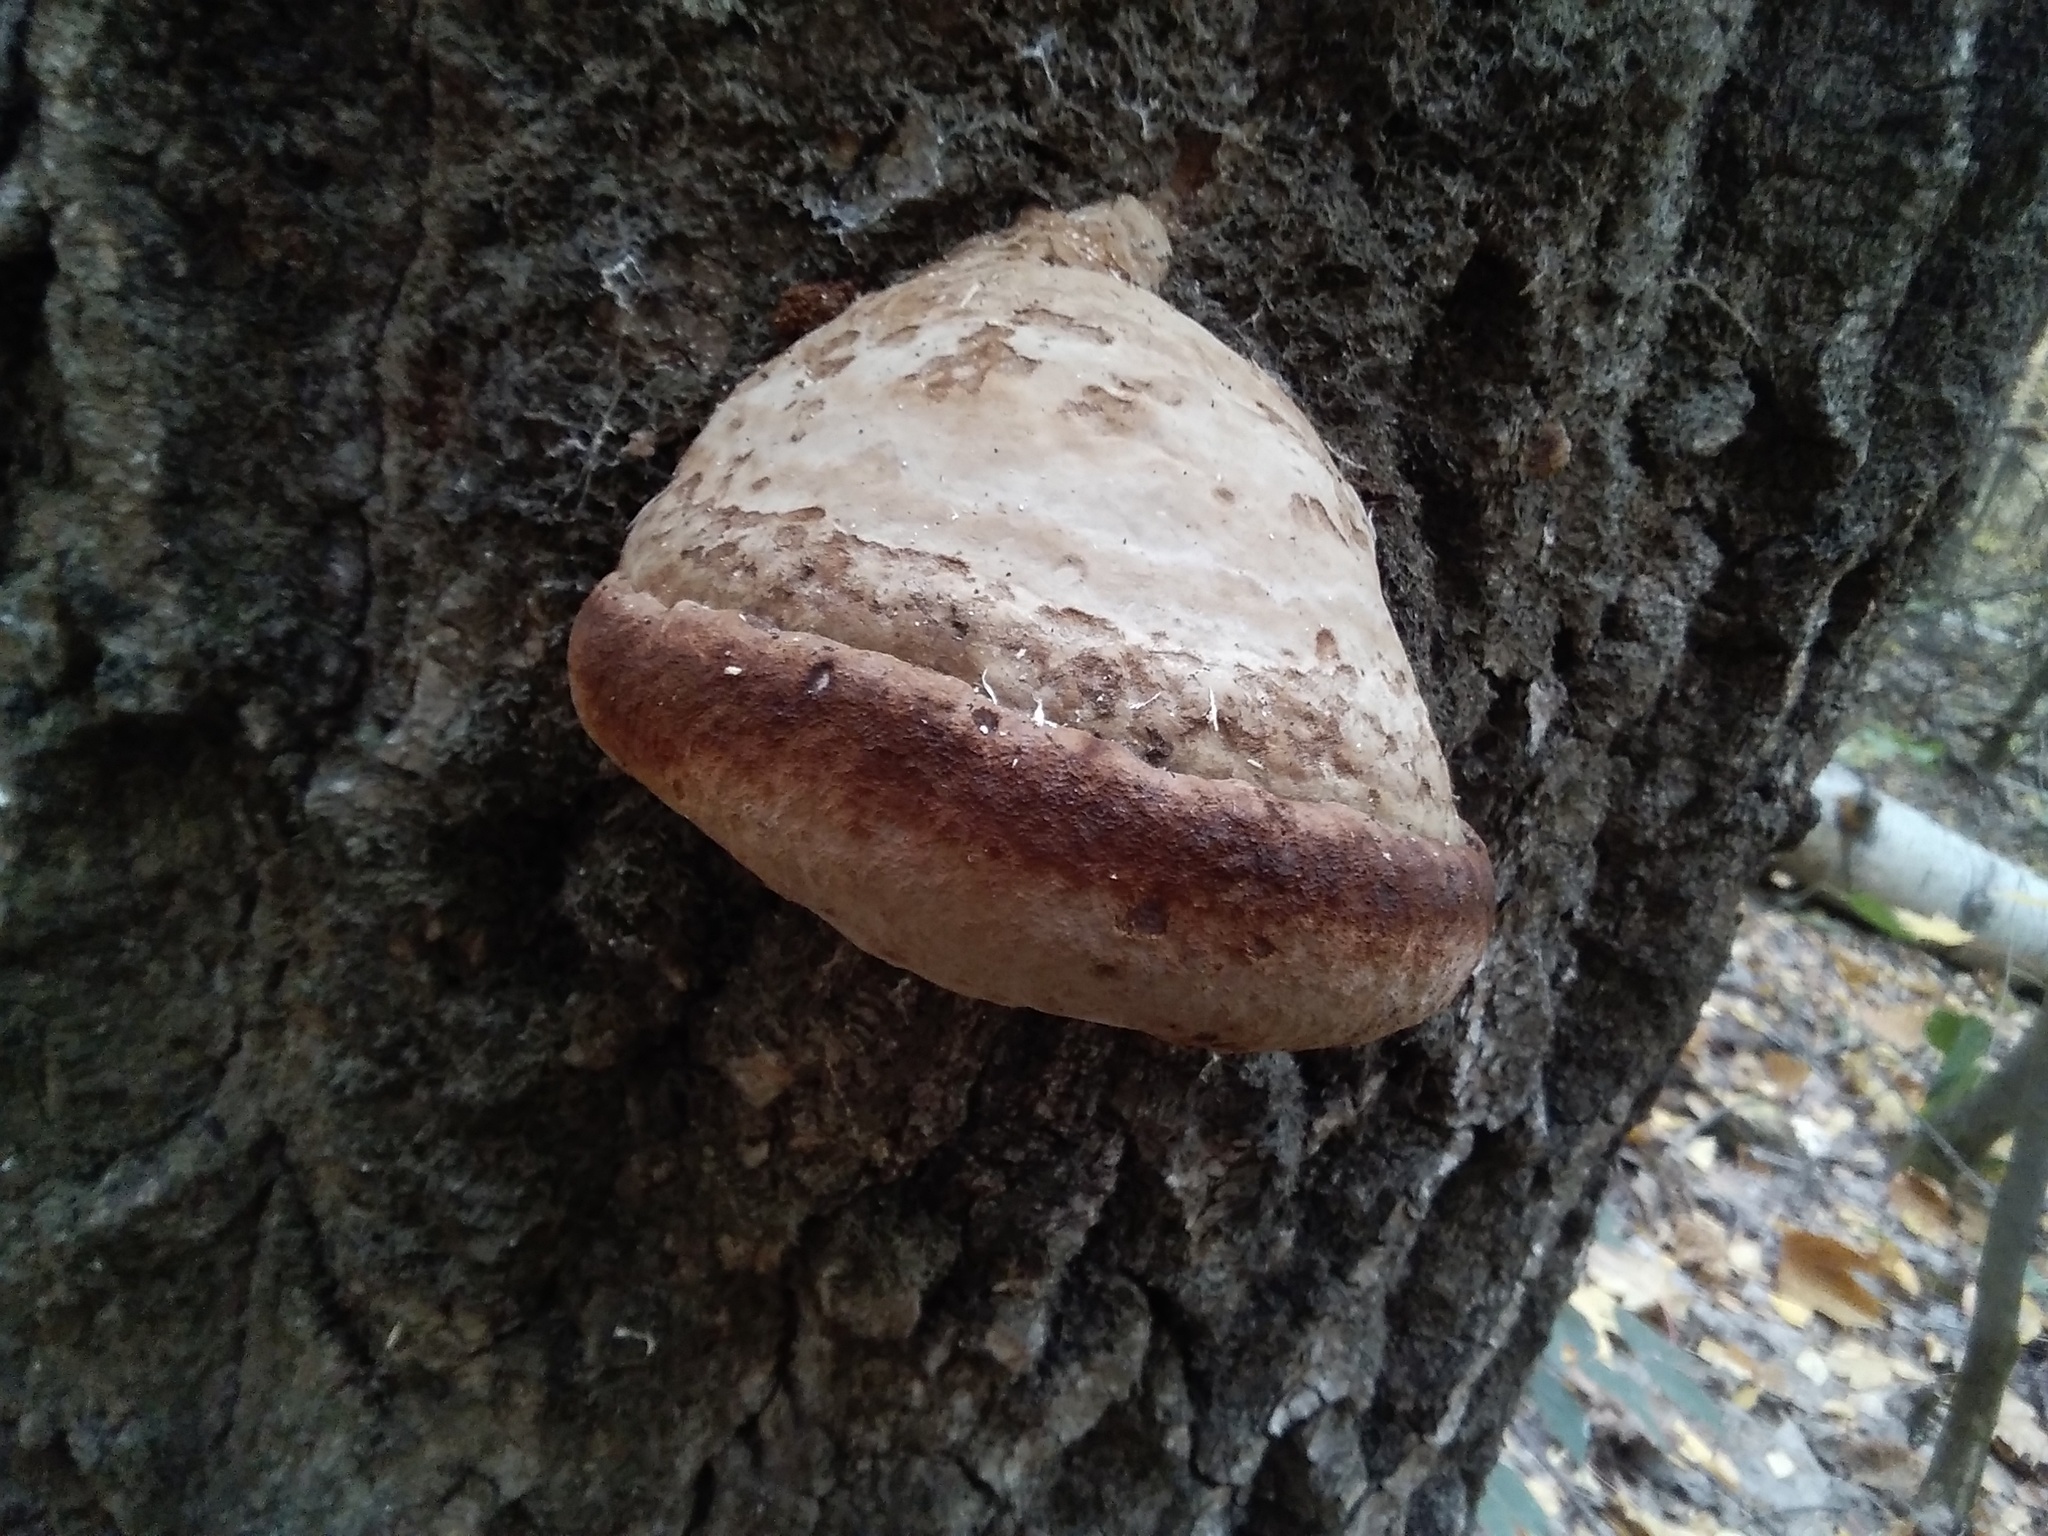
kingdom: Fungi
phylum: Basidiomycota
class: Agaricomycetes
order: Polyporales
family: Polyporaceae
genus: Fomes
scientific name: Fomes fomentarius
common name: Hoof fungus
